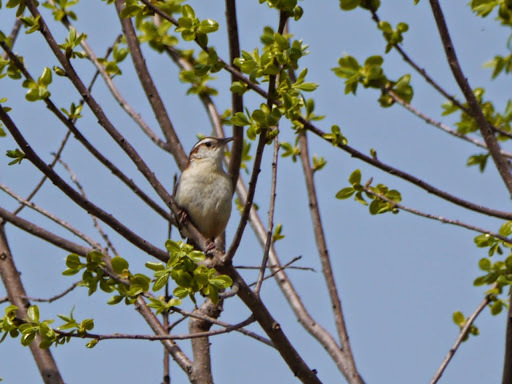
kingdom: Animalia
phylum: Chordata
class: Aves
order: Passeriformes
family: Troglodytidae
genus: Thryothorus
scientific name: Thryothorus ludovicianus
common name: Carolina wren
